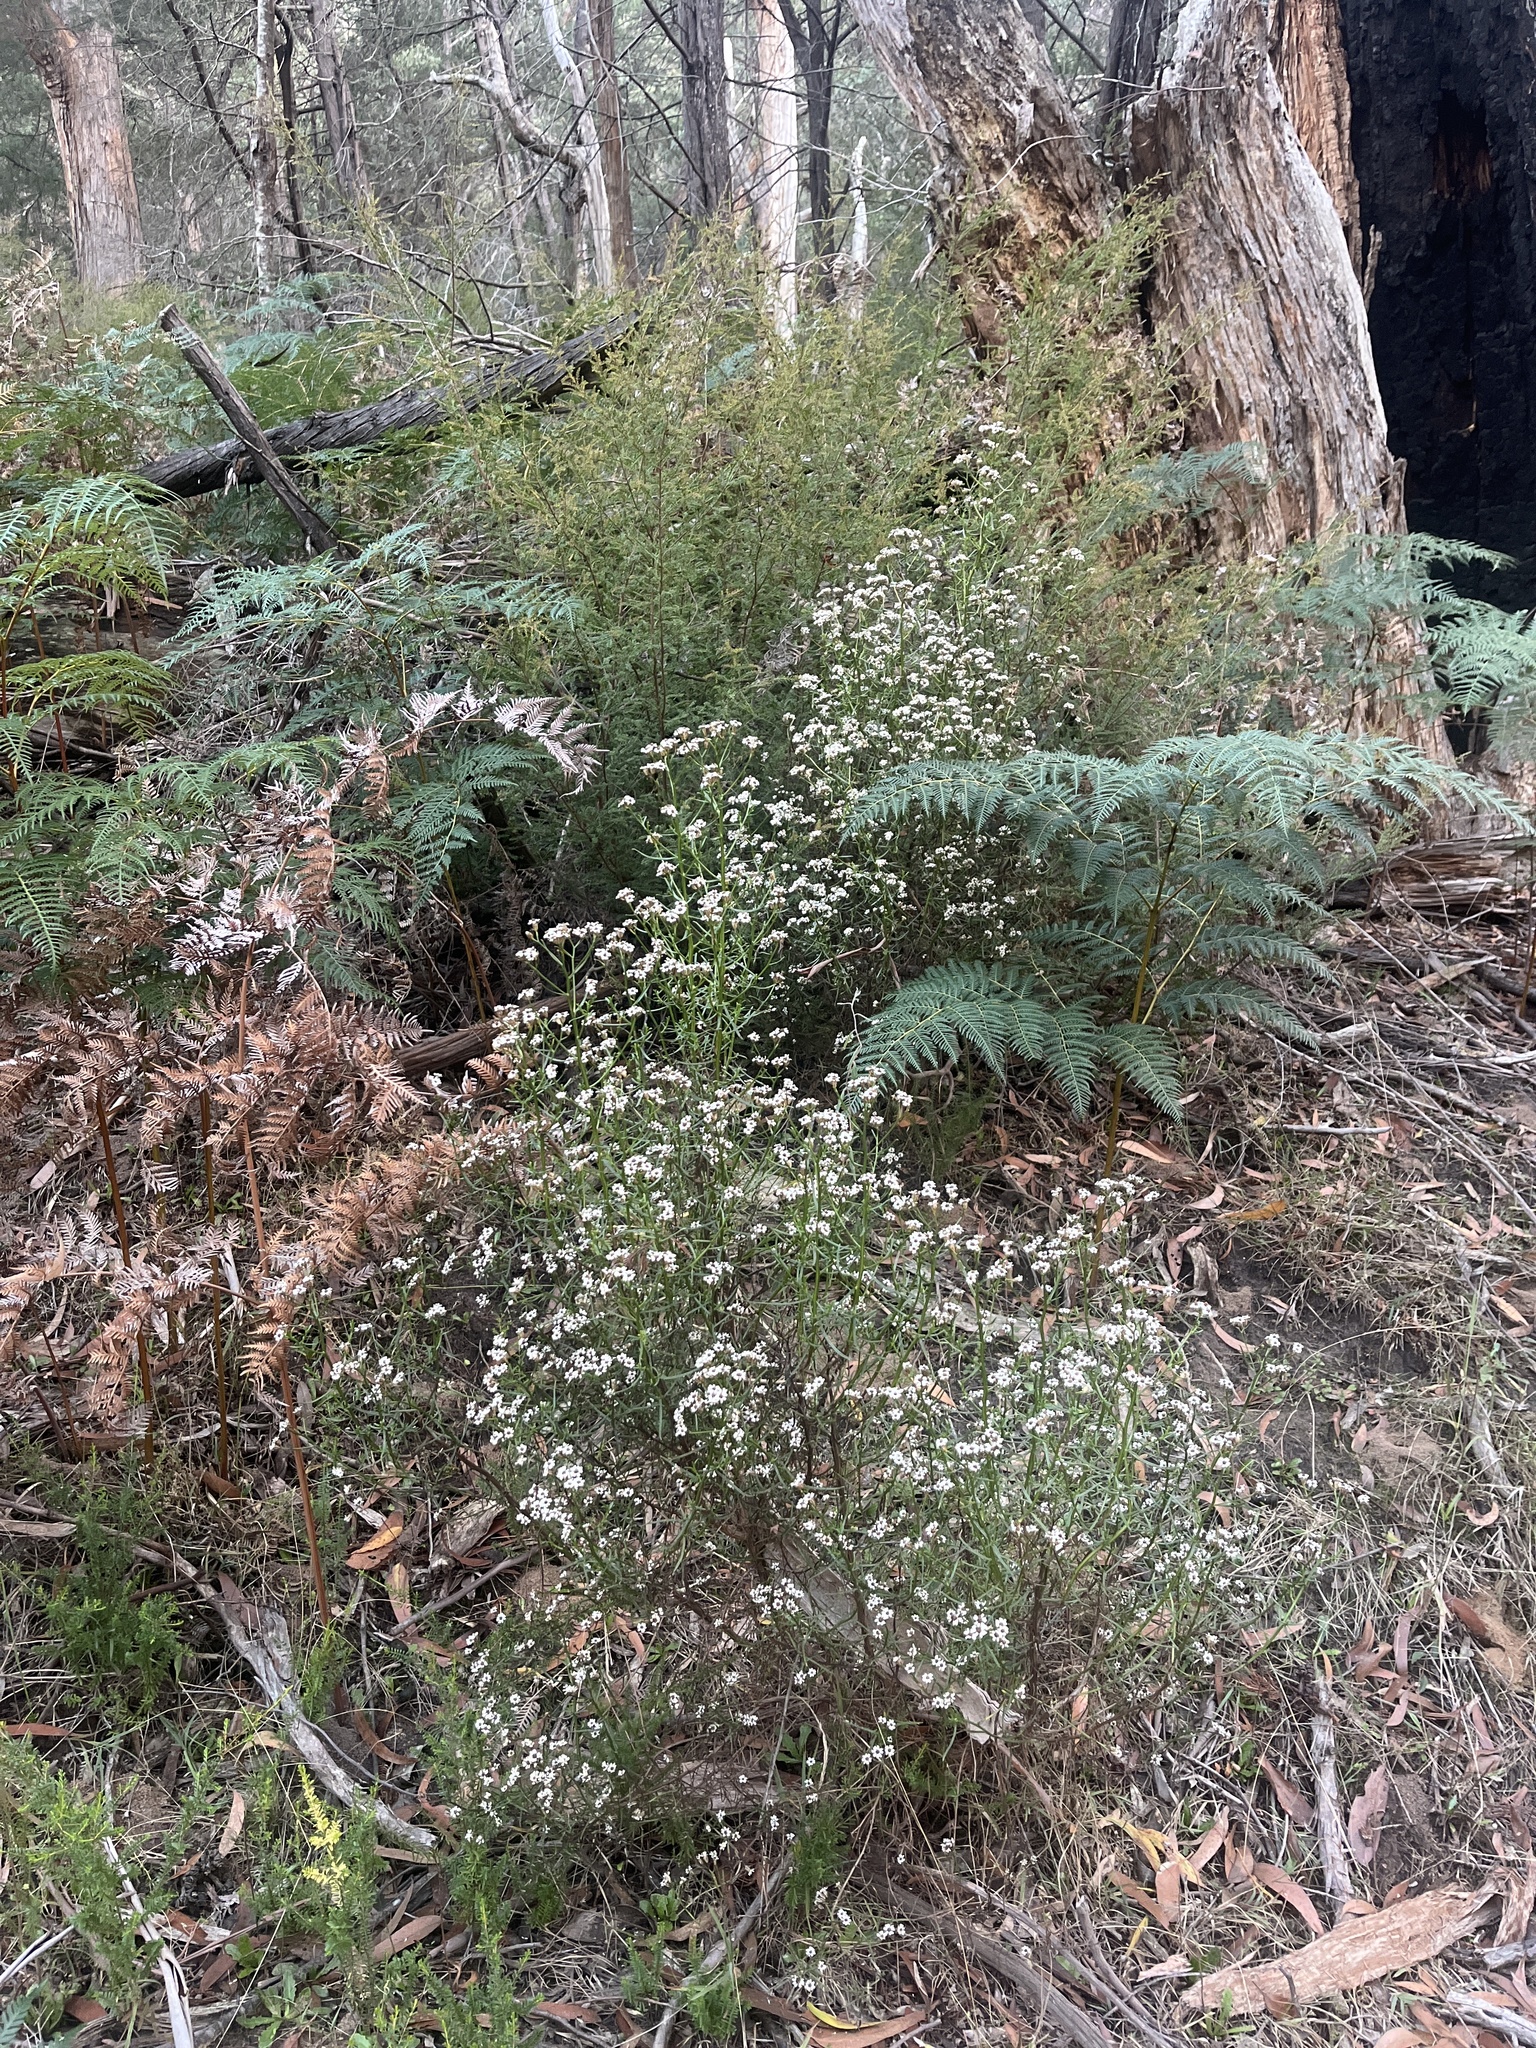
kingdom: Plantae
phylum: Tracheophyta
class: Magnoliopsida
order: Asterales
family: Asteraceae
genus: Ixodia
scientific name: Ixodia achillaeoides
